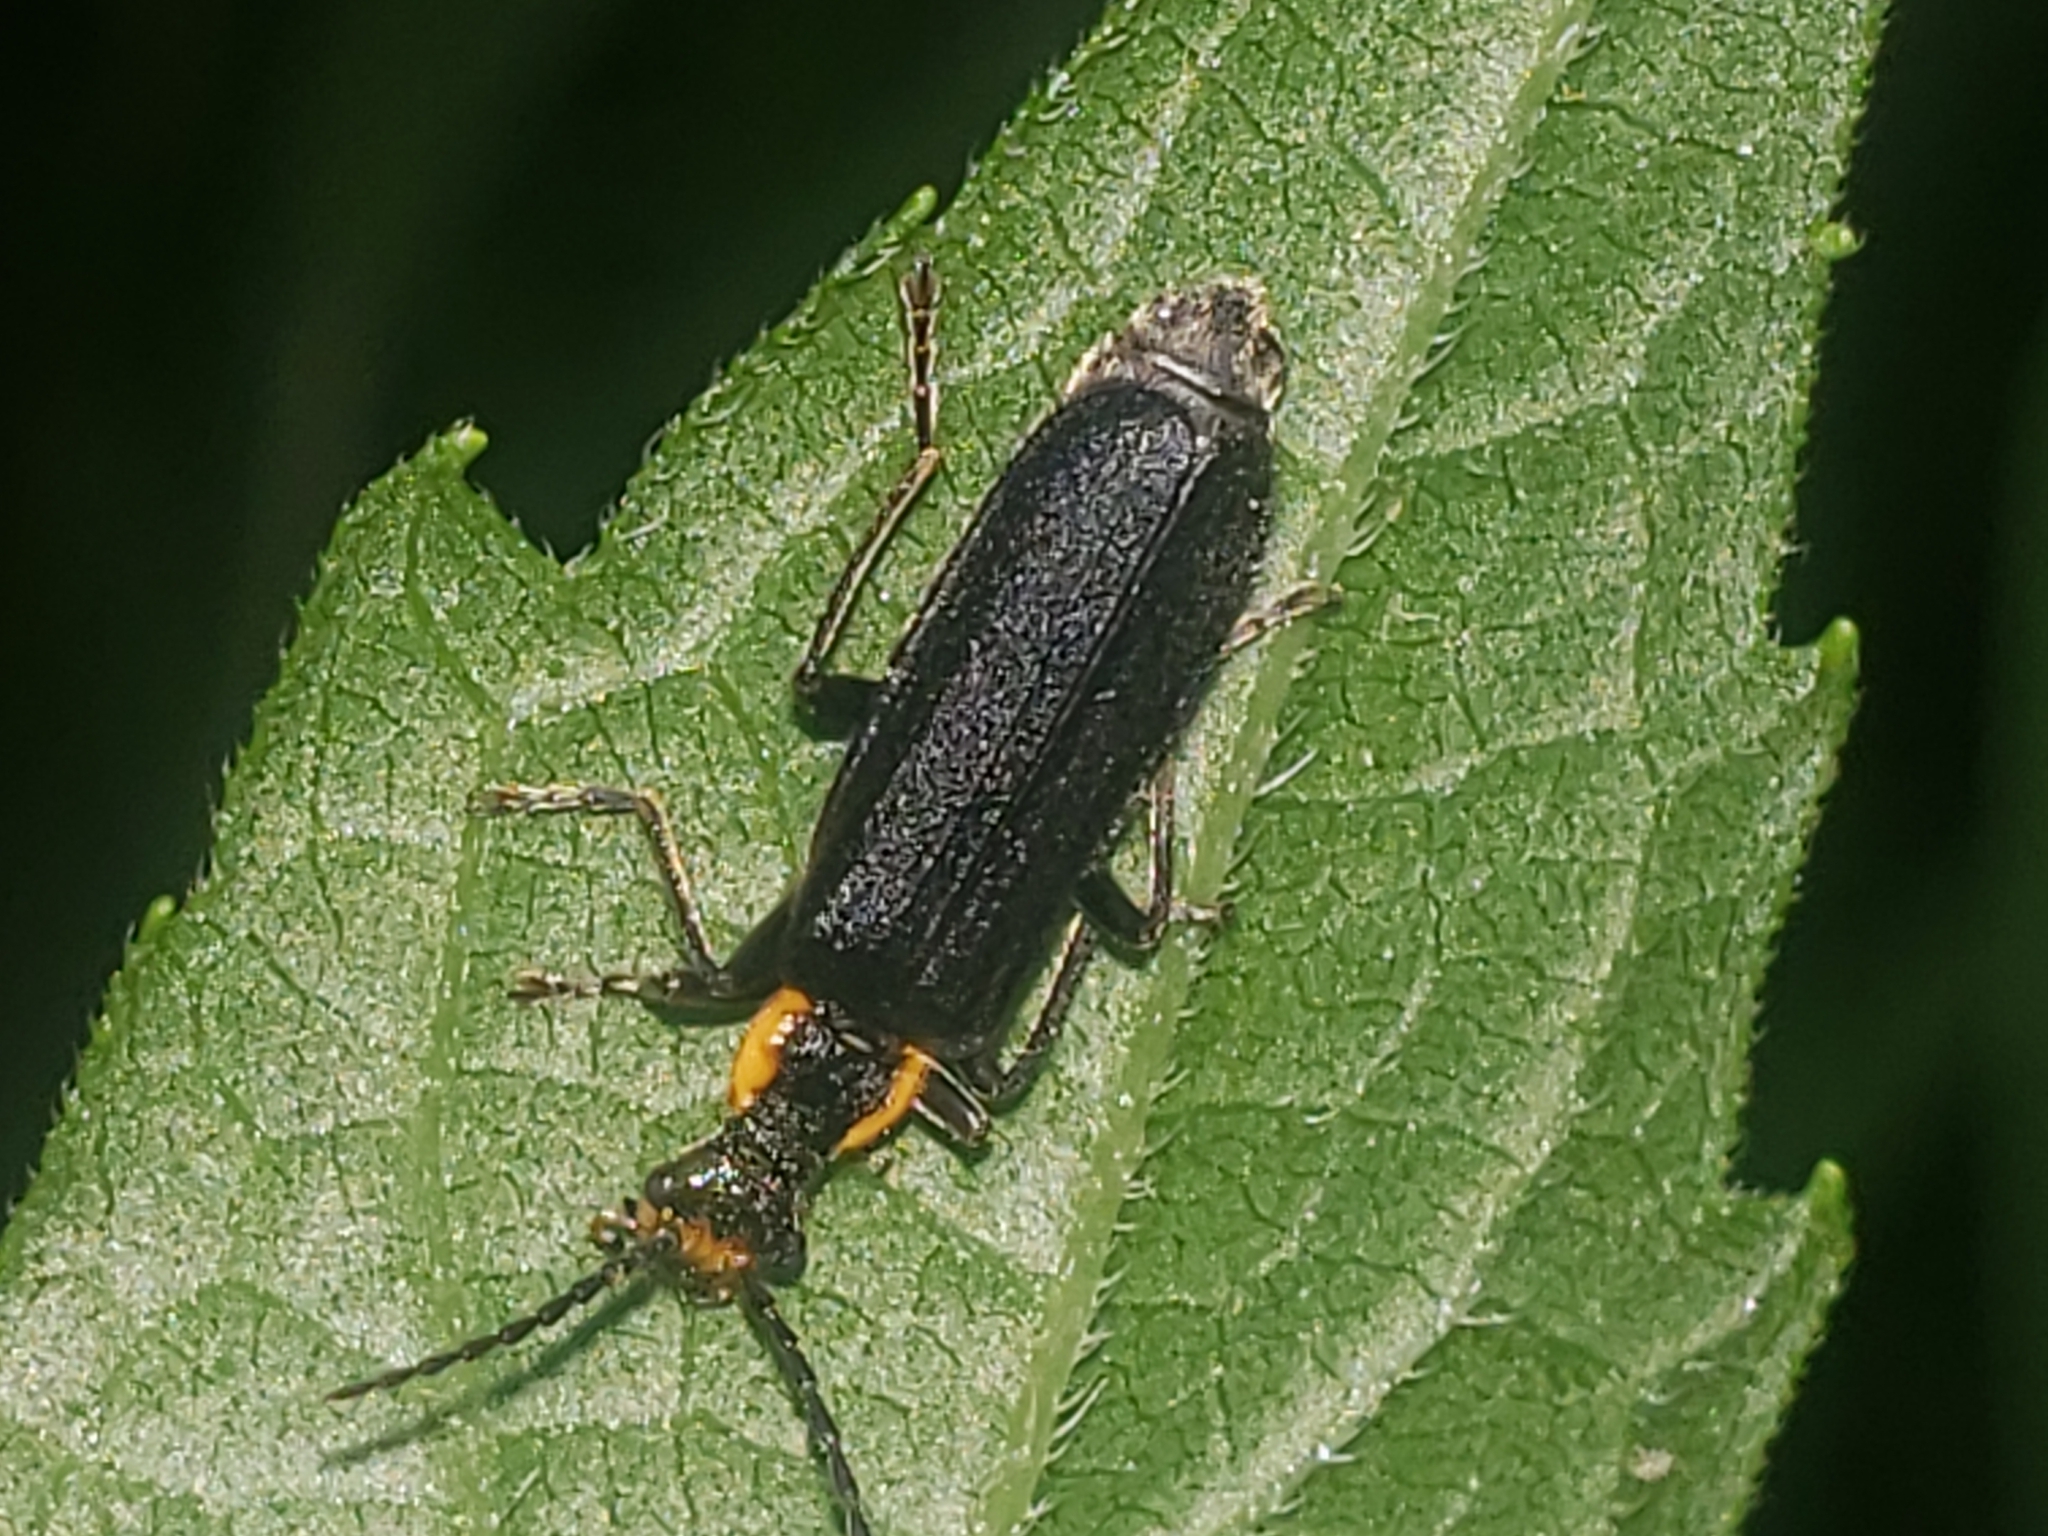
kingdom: Animalia
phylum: Arthropoda
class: Insecta
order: Coleoptera
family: Cantharidae
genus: Podabrus
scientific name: Podabrus rugosulus
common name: Wrinkled soldier beetle
